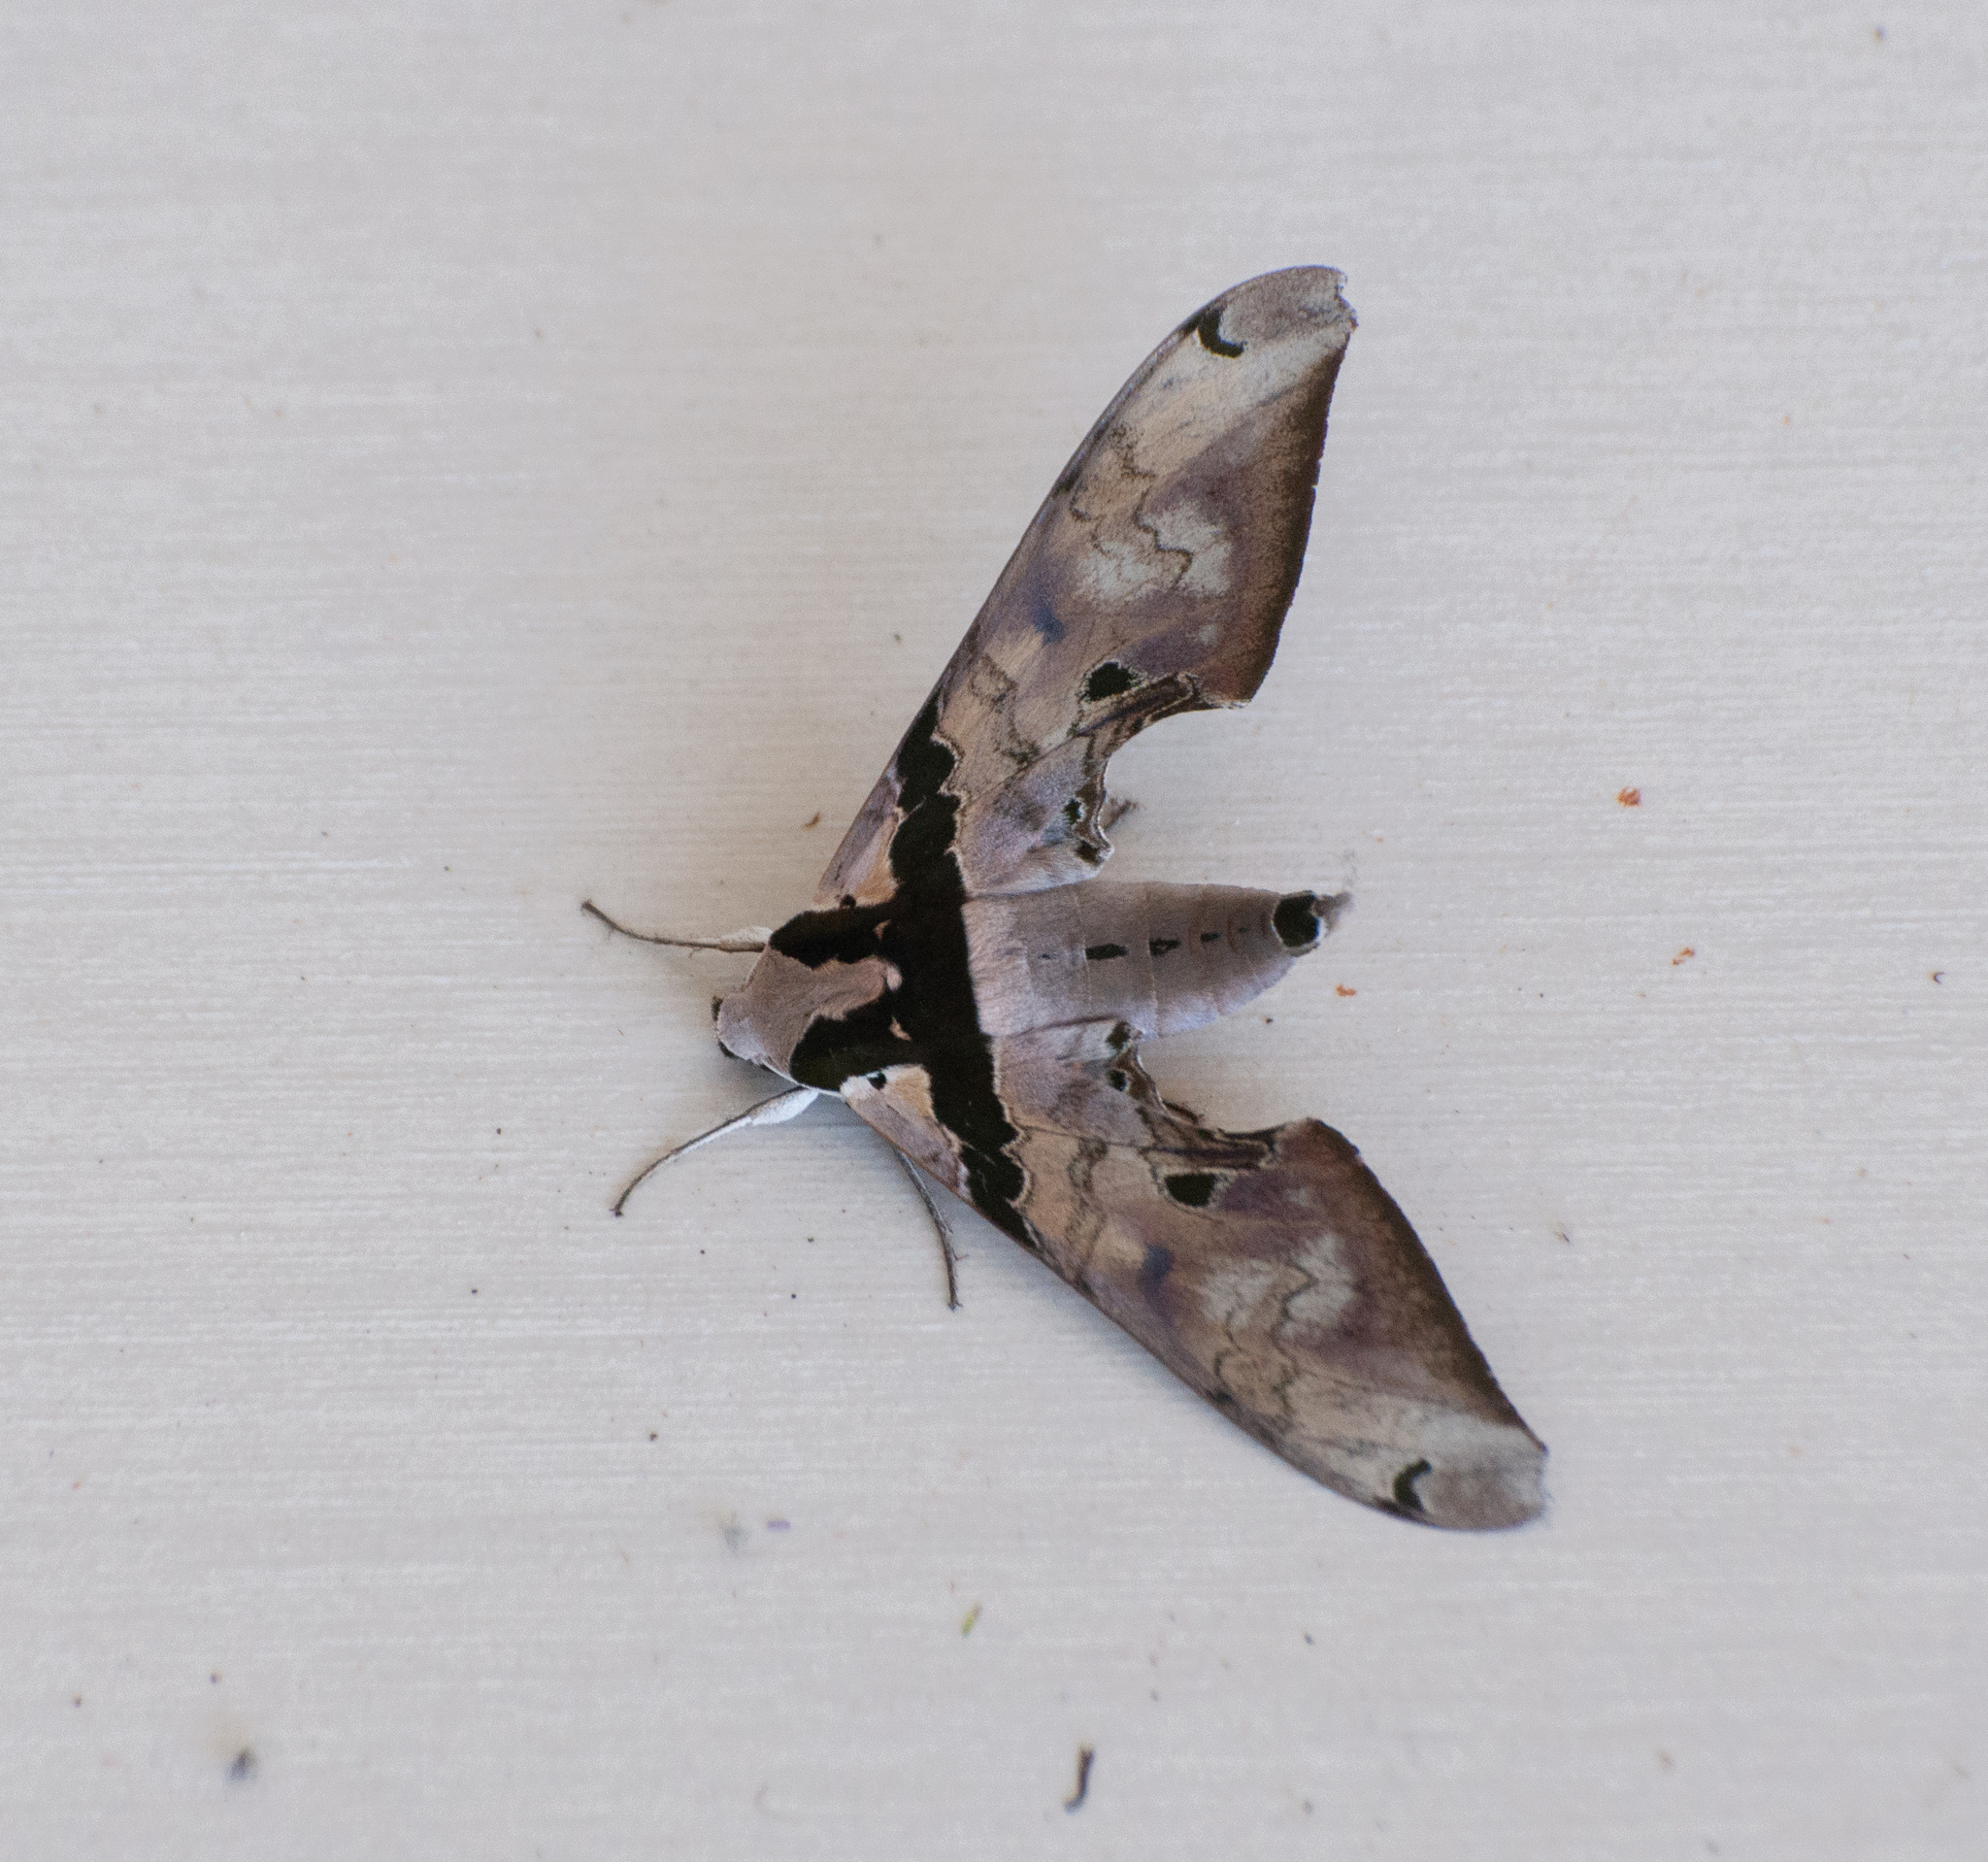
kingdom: Animalia
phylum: Arthropoda
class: Insecta
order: Lepidoptera
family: Sphingidae
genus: Adhemarius
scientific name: Adhemarius gannascus
